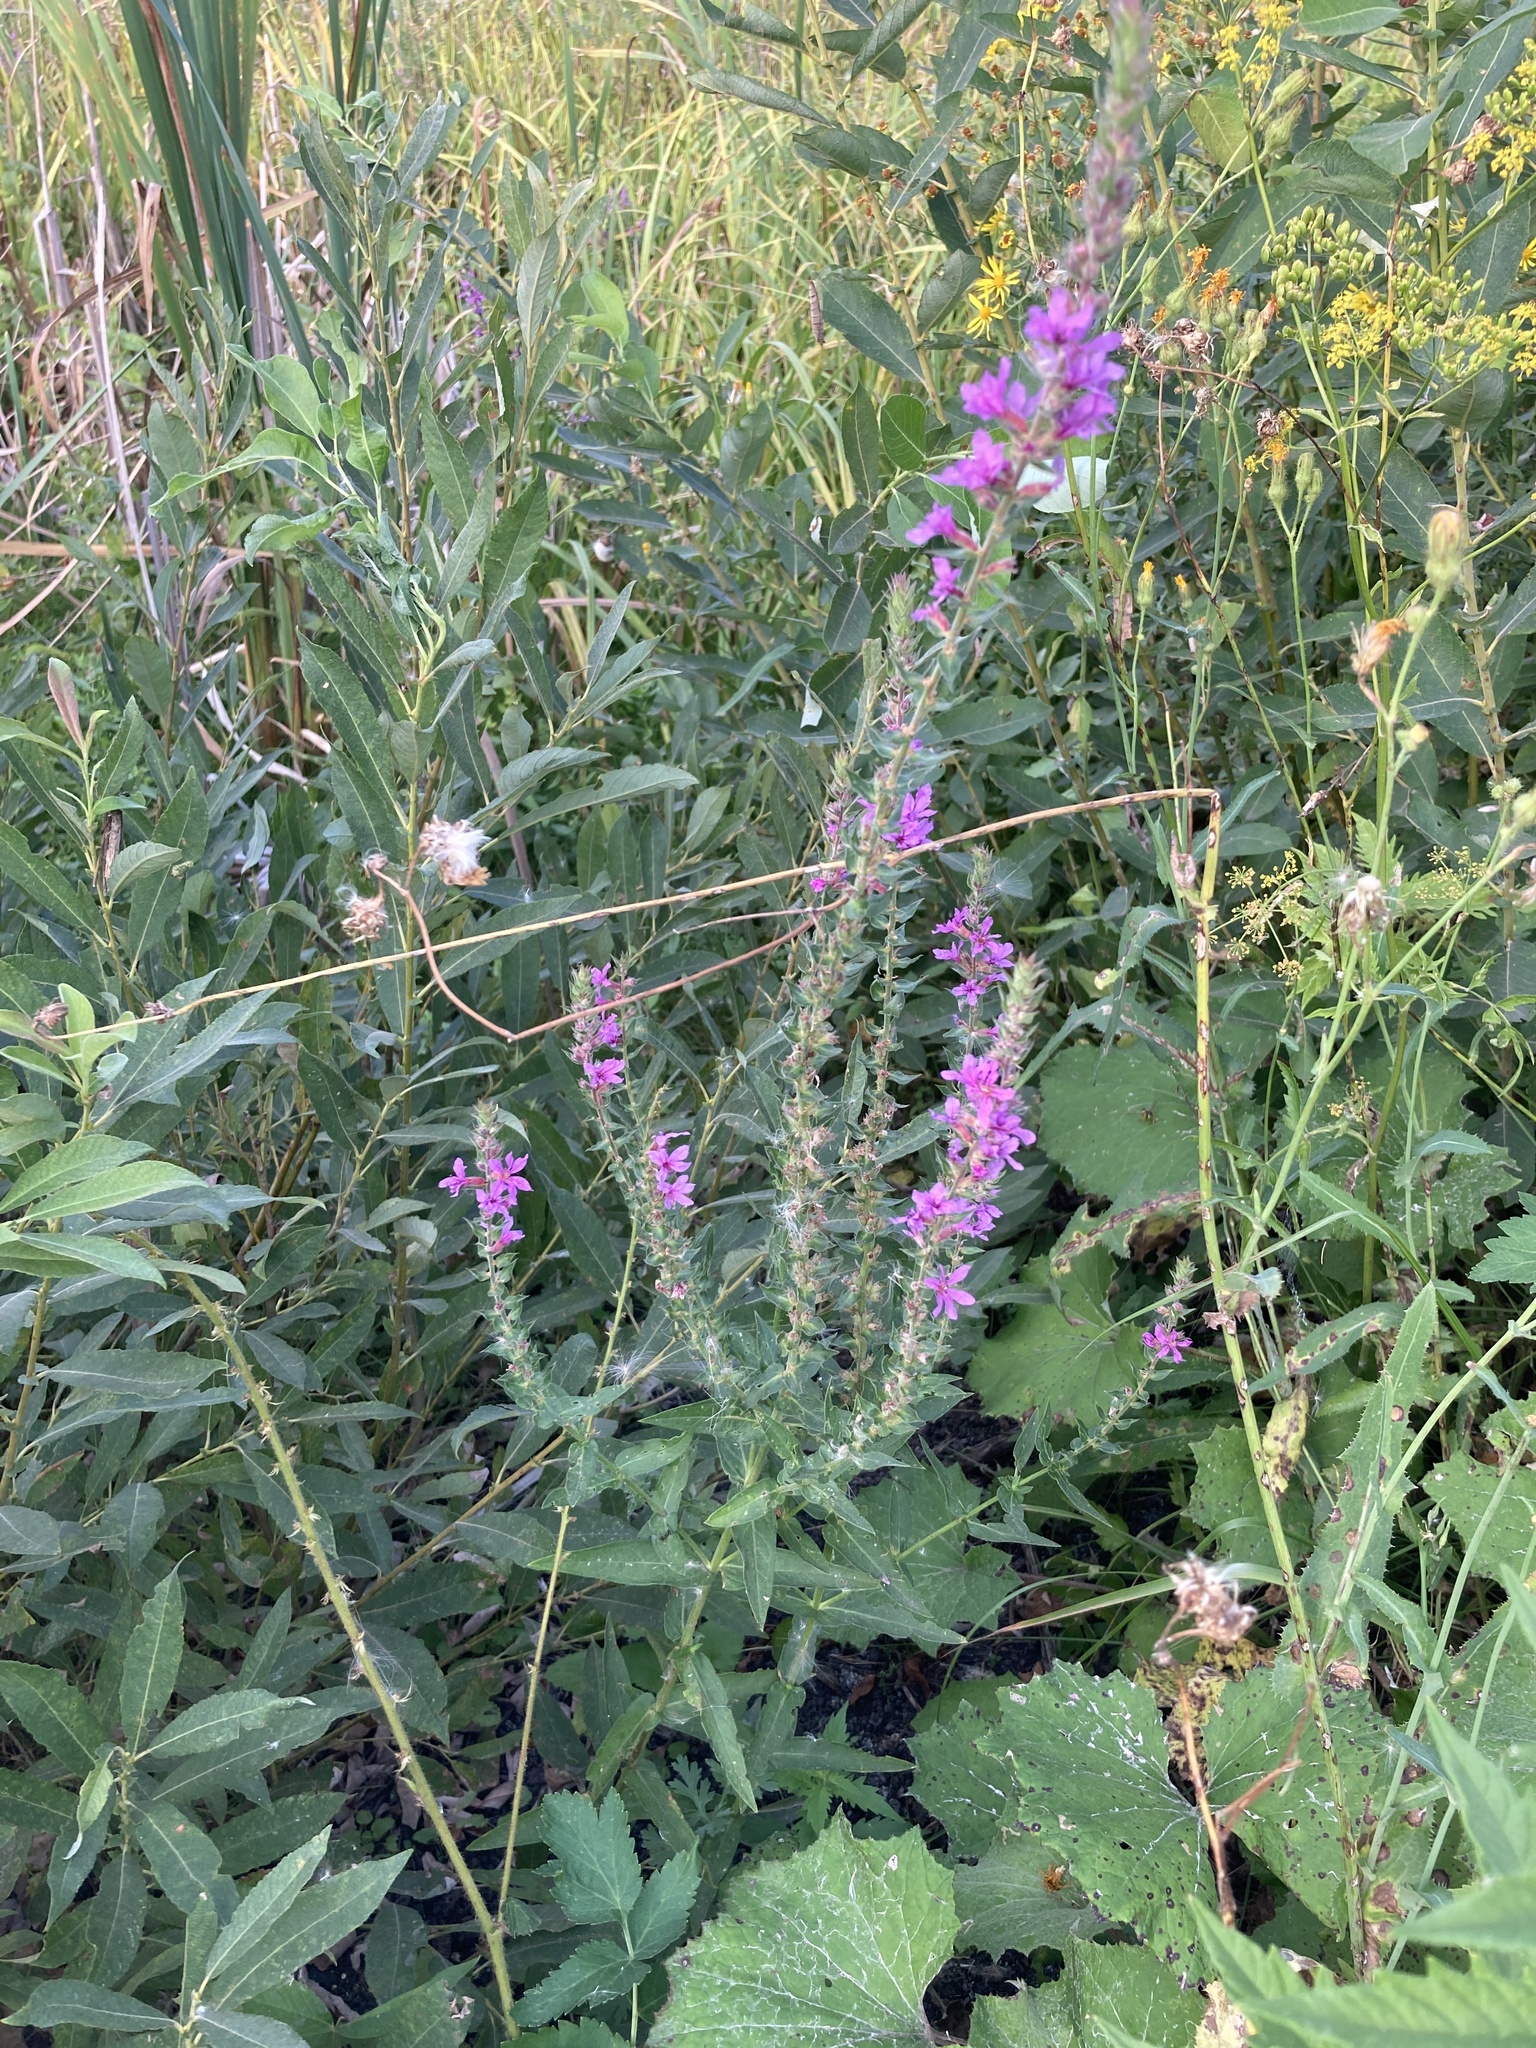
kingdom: Plantae
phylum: Tracheophyta
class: Magnoliopsida
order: Myrtales
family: Lythraceae
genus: Lythrum
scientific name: Lythrum salicaria
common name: Purple loosestrife
